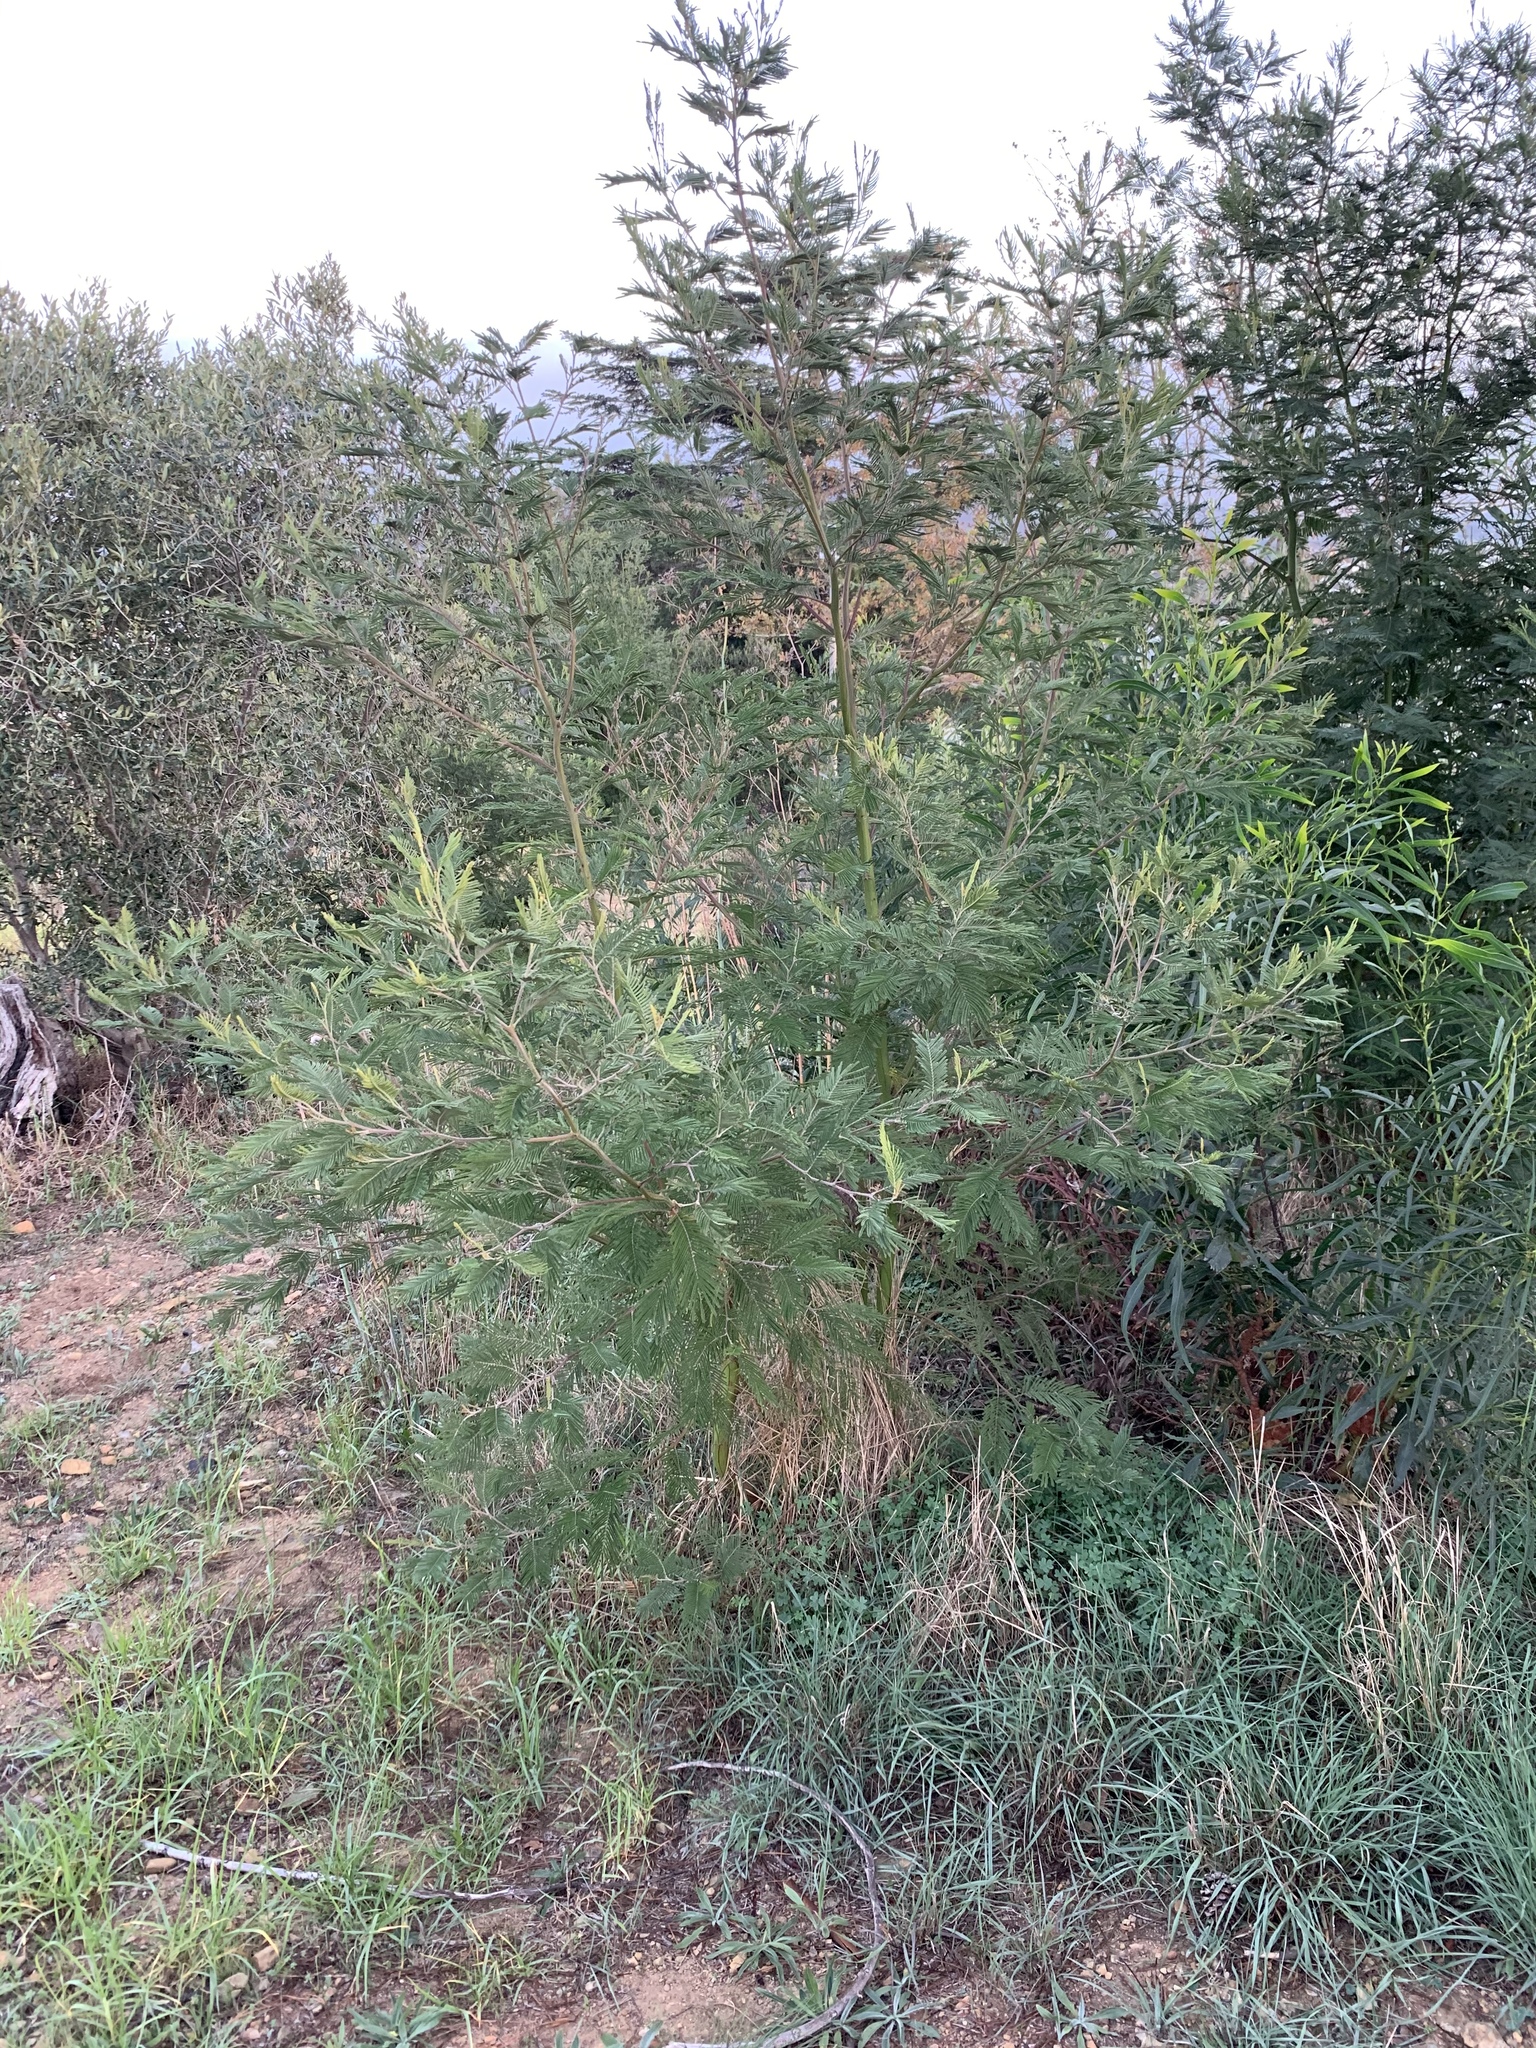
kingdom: Plantae
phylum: Tracheophyta
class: Magnoliopsida
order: Fabales
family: Fabaceae
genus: Acacia
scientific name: Acacia mearnsii
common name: Black wattle
